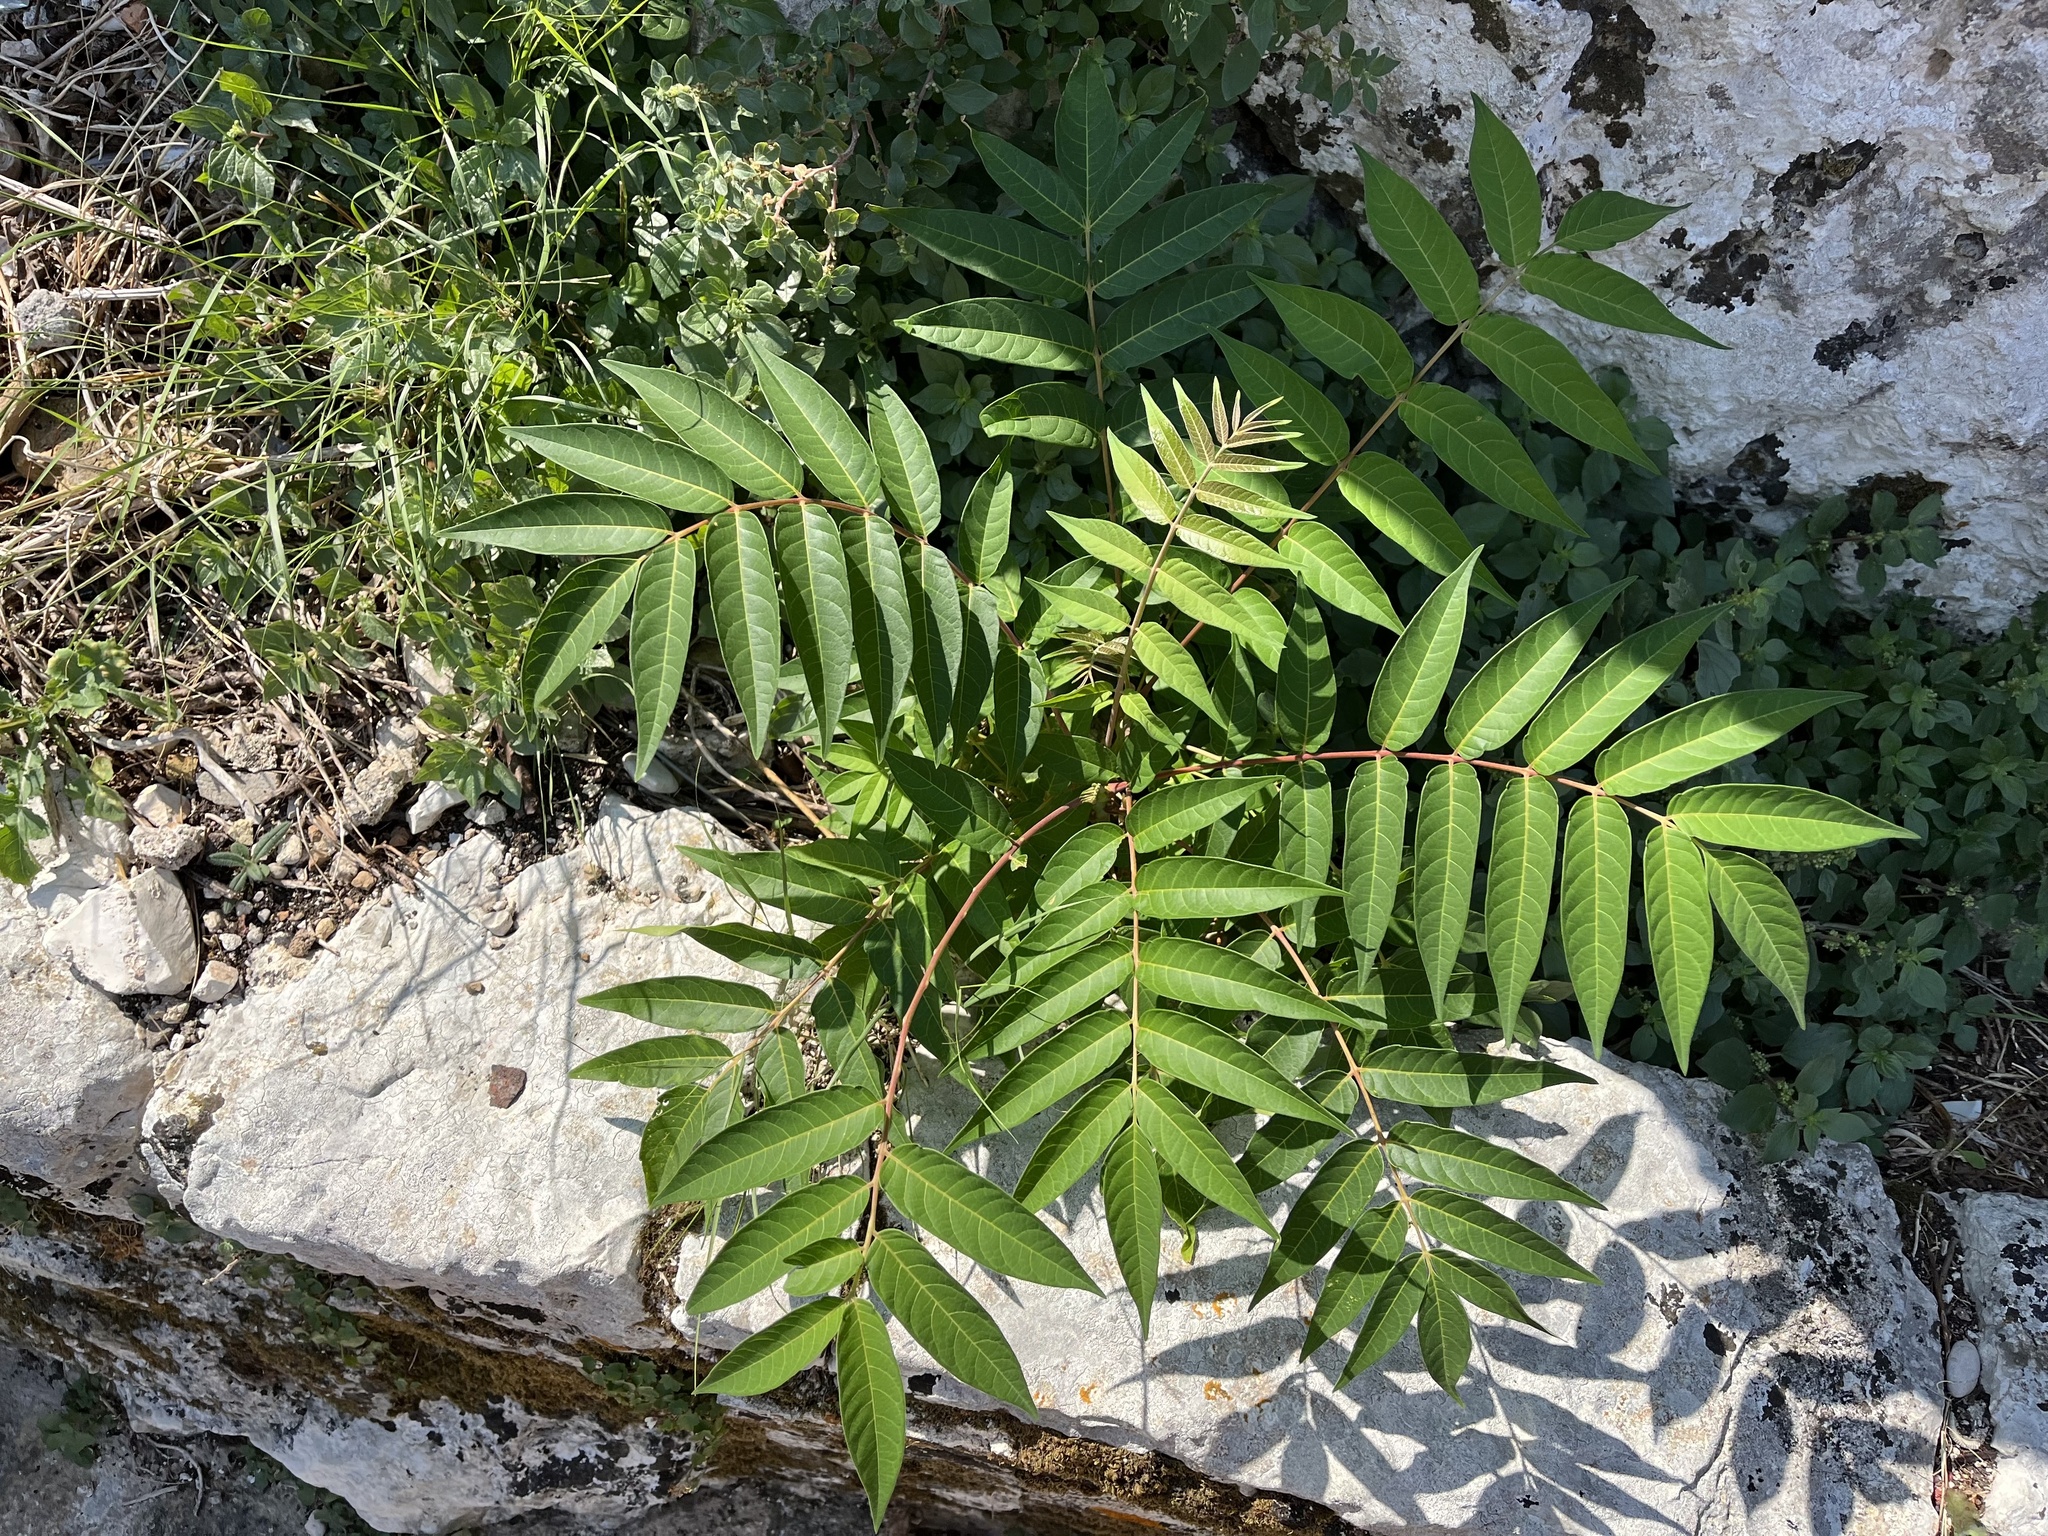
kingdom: Plantae
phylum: Tracheophyta
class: Magnoliopsida
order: Sapindales
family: Simaroubaceae
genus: Ailanthus
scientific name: Ailanthus altissima
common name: Tree-of-heaven
